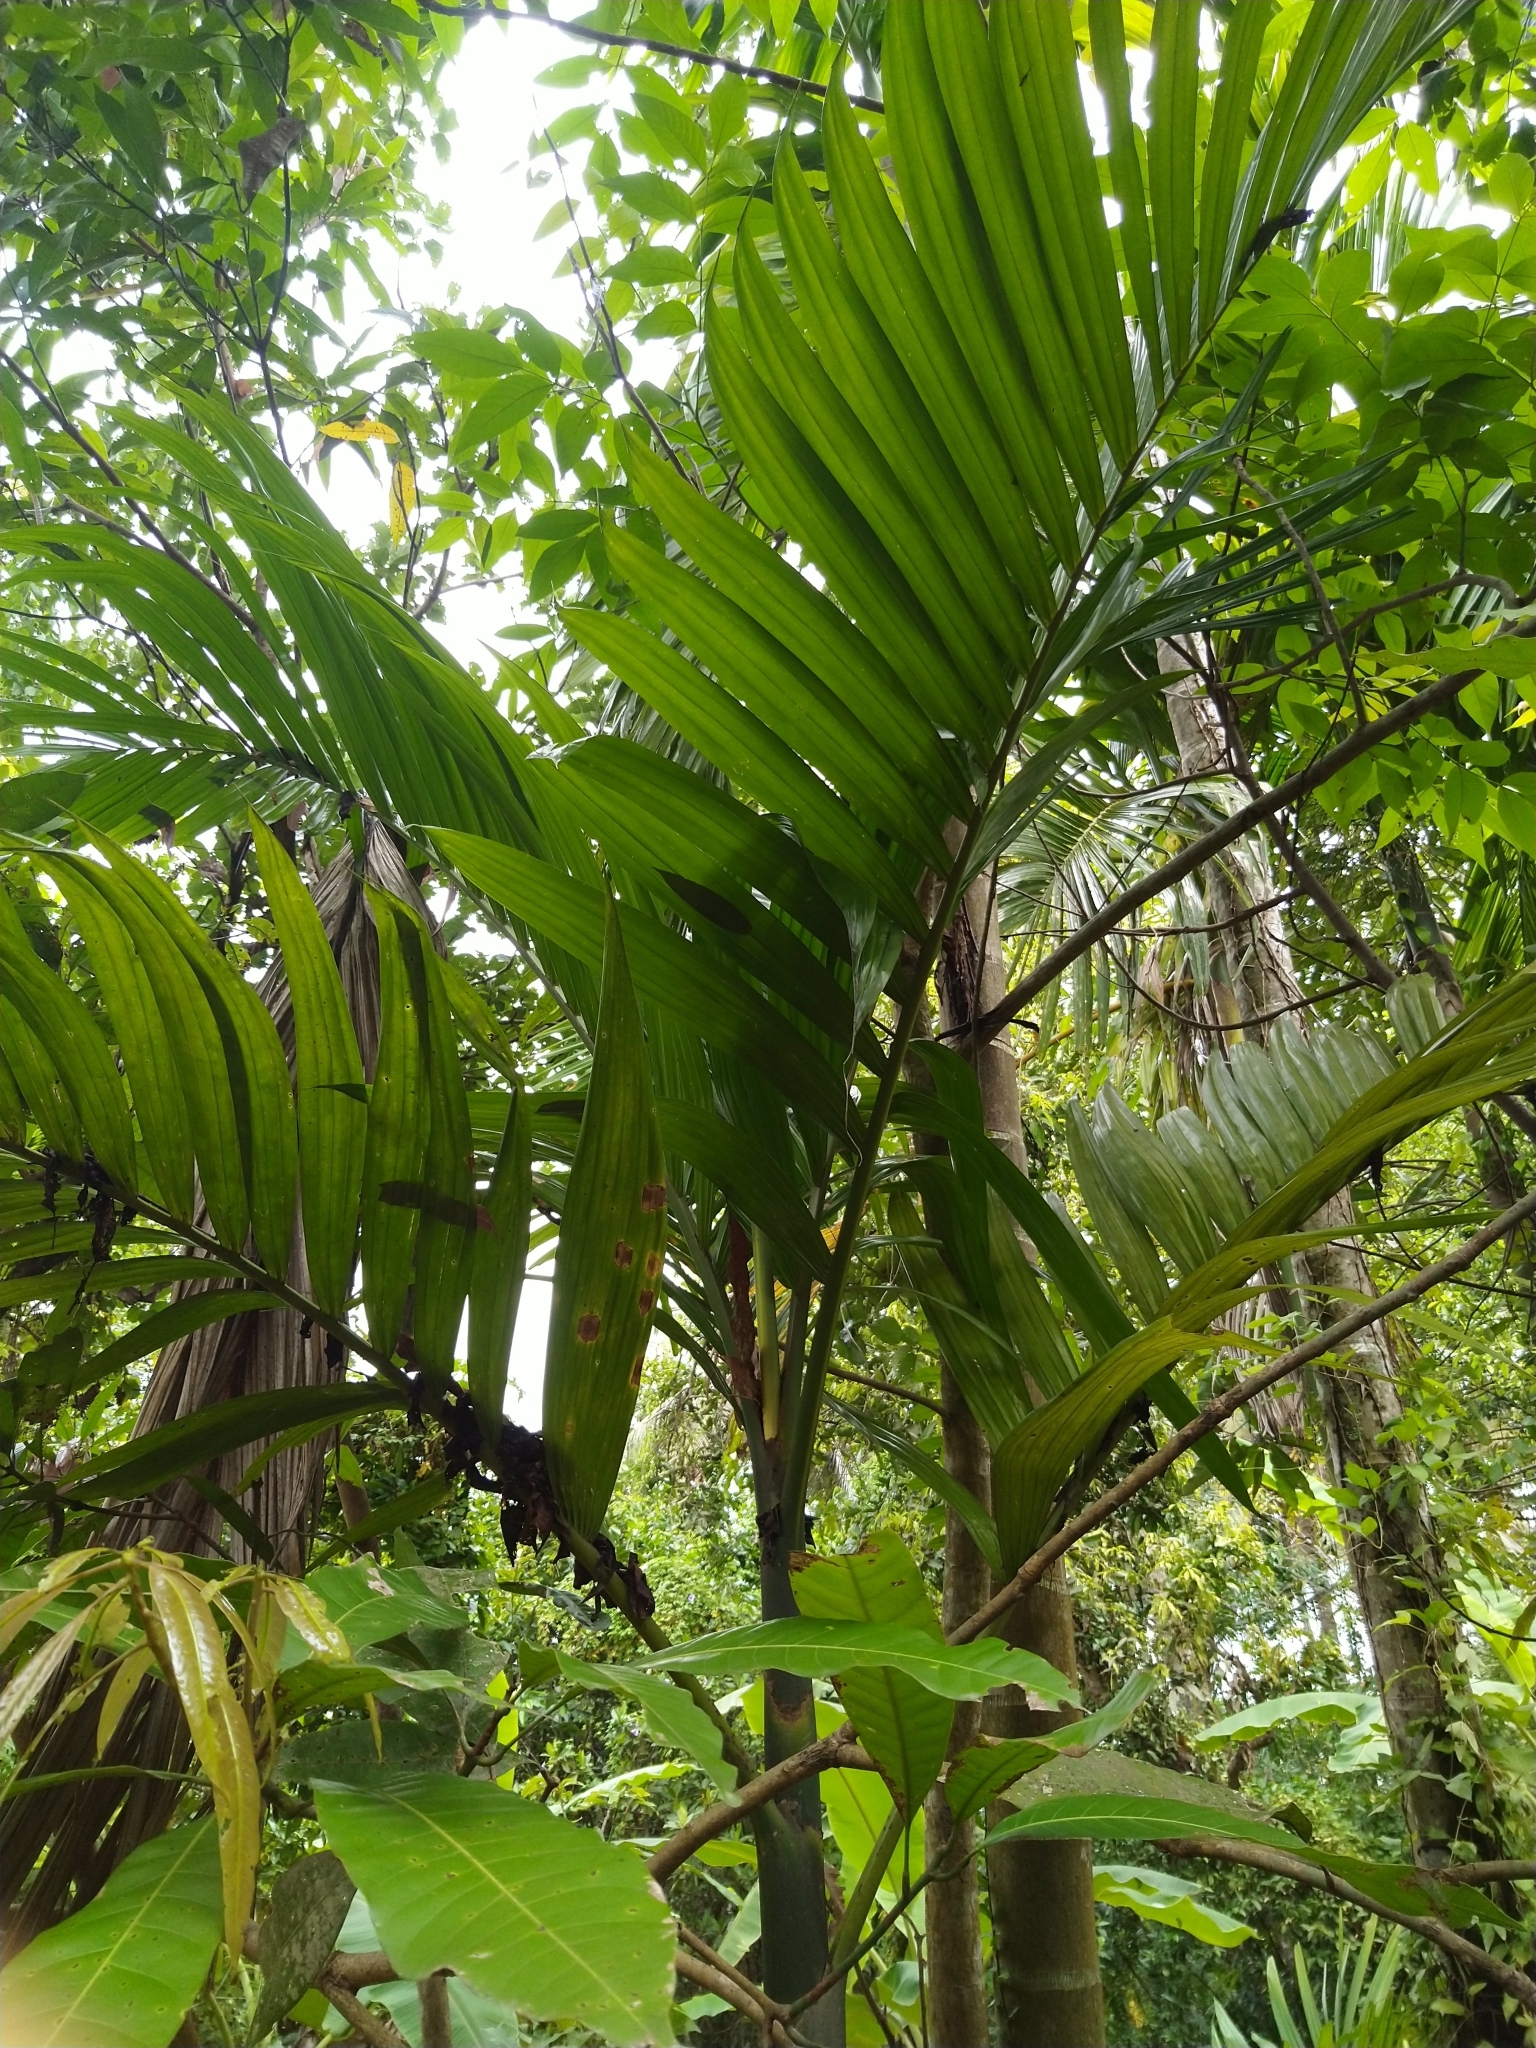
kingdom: Plantae
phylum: Tracheophyta
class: Liliopsida
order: Arecales
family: Arecaceae
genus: Areca
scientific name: Areca catechu
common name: Indian-nut
